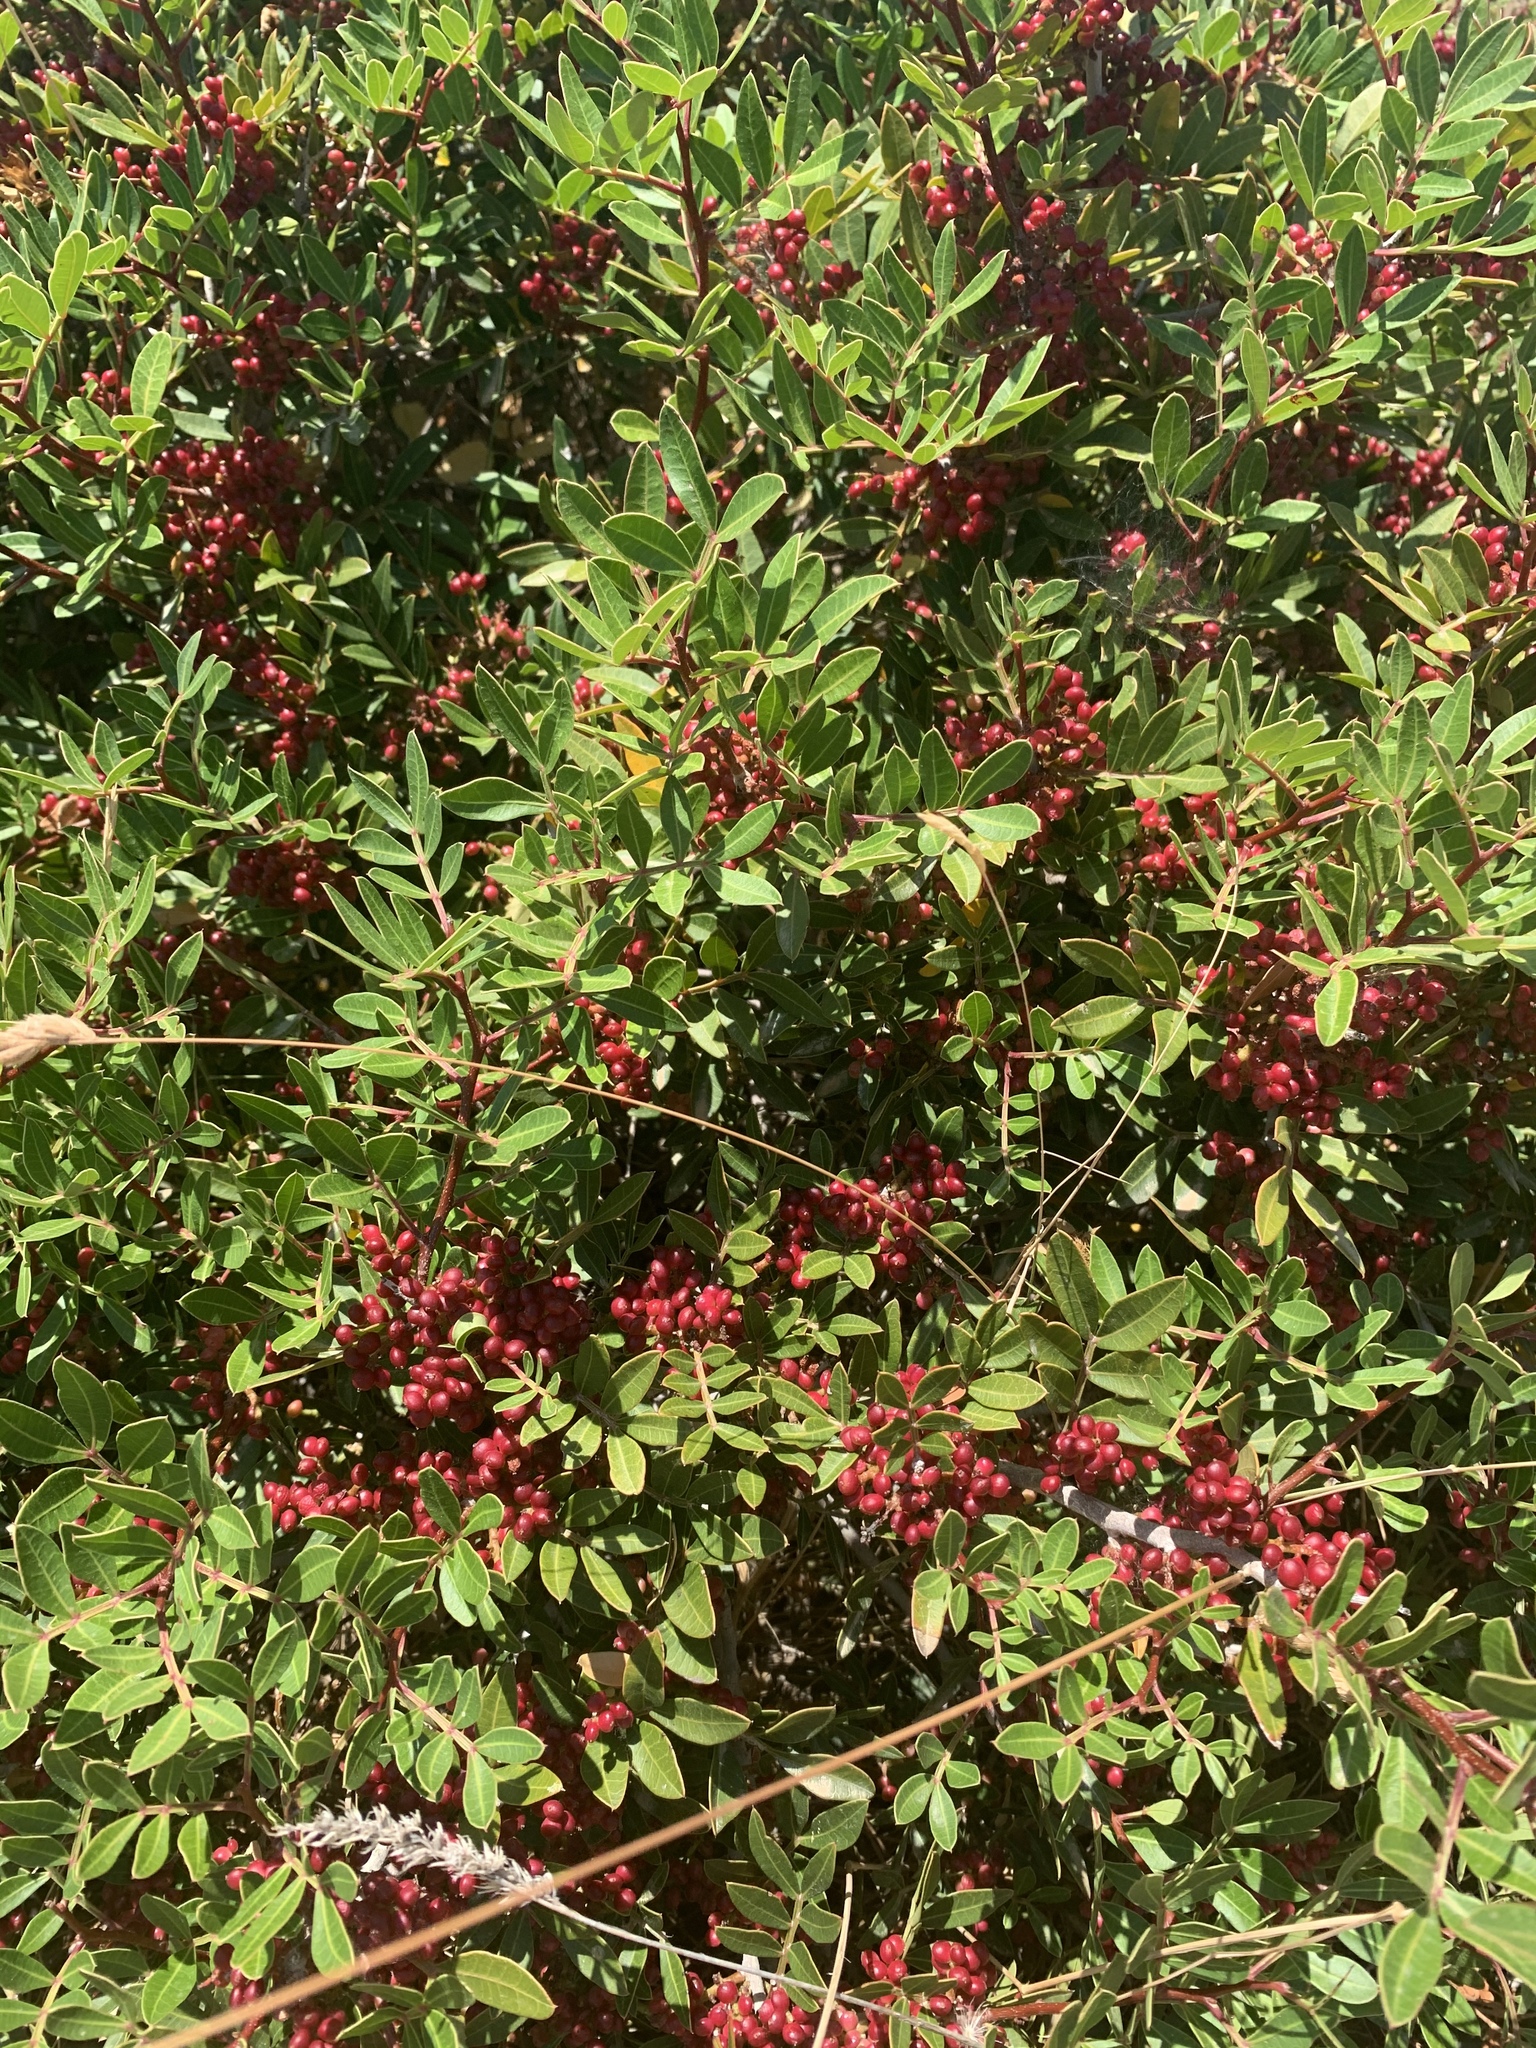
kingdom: Plantae
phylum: Tracheophyta
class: Magnoliopsida
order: Sapindales
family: Anacardiaceae
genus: Pistacia
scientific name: Pistacia lentiscus
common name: Lentisk
